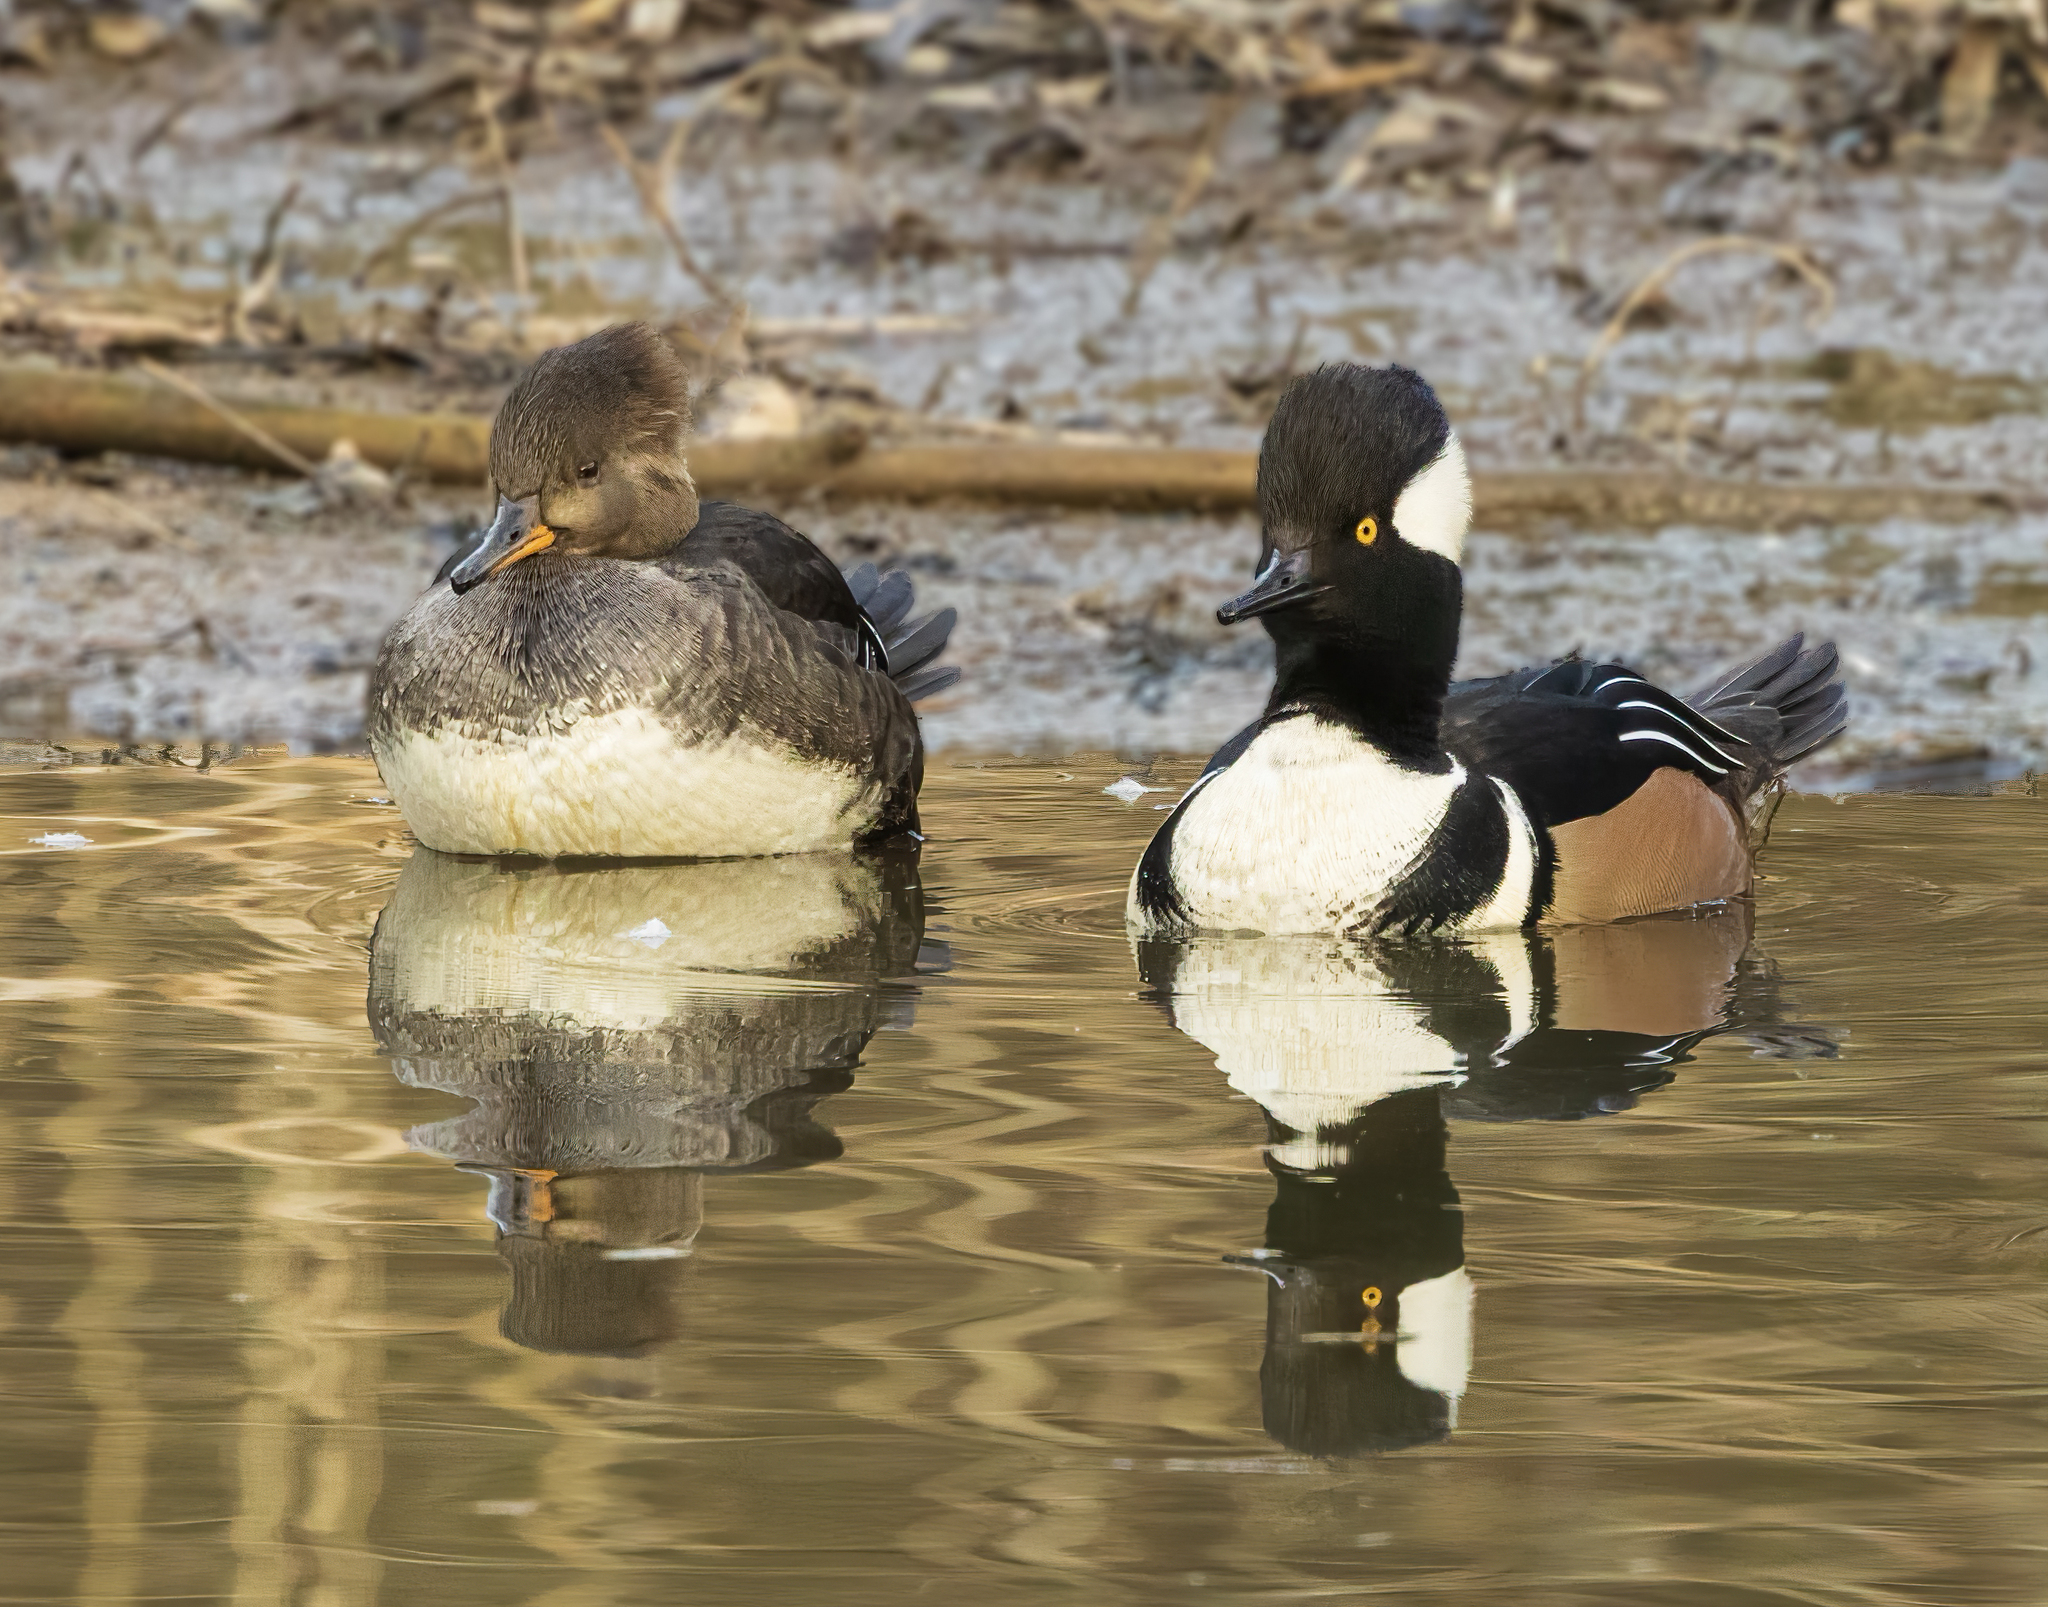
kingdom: Animalia
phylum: Chordata
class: Aves
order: Anseriformes
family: Anatidae
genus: Lophodytes
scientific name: Lophodytes cucullatus
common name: Hooded merganser
